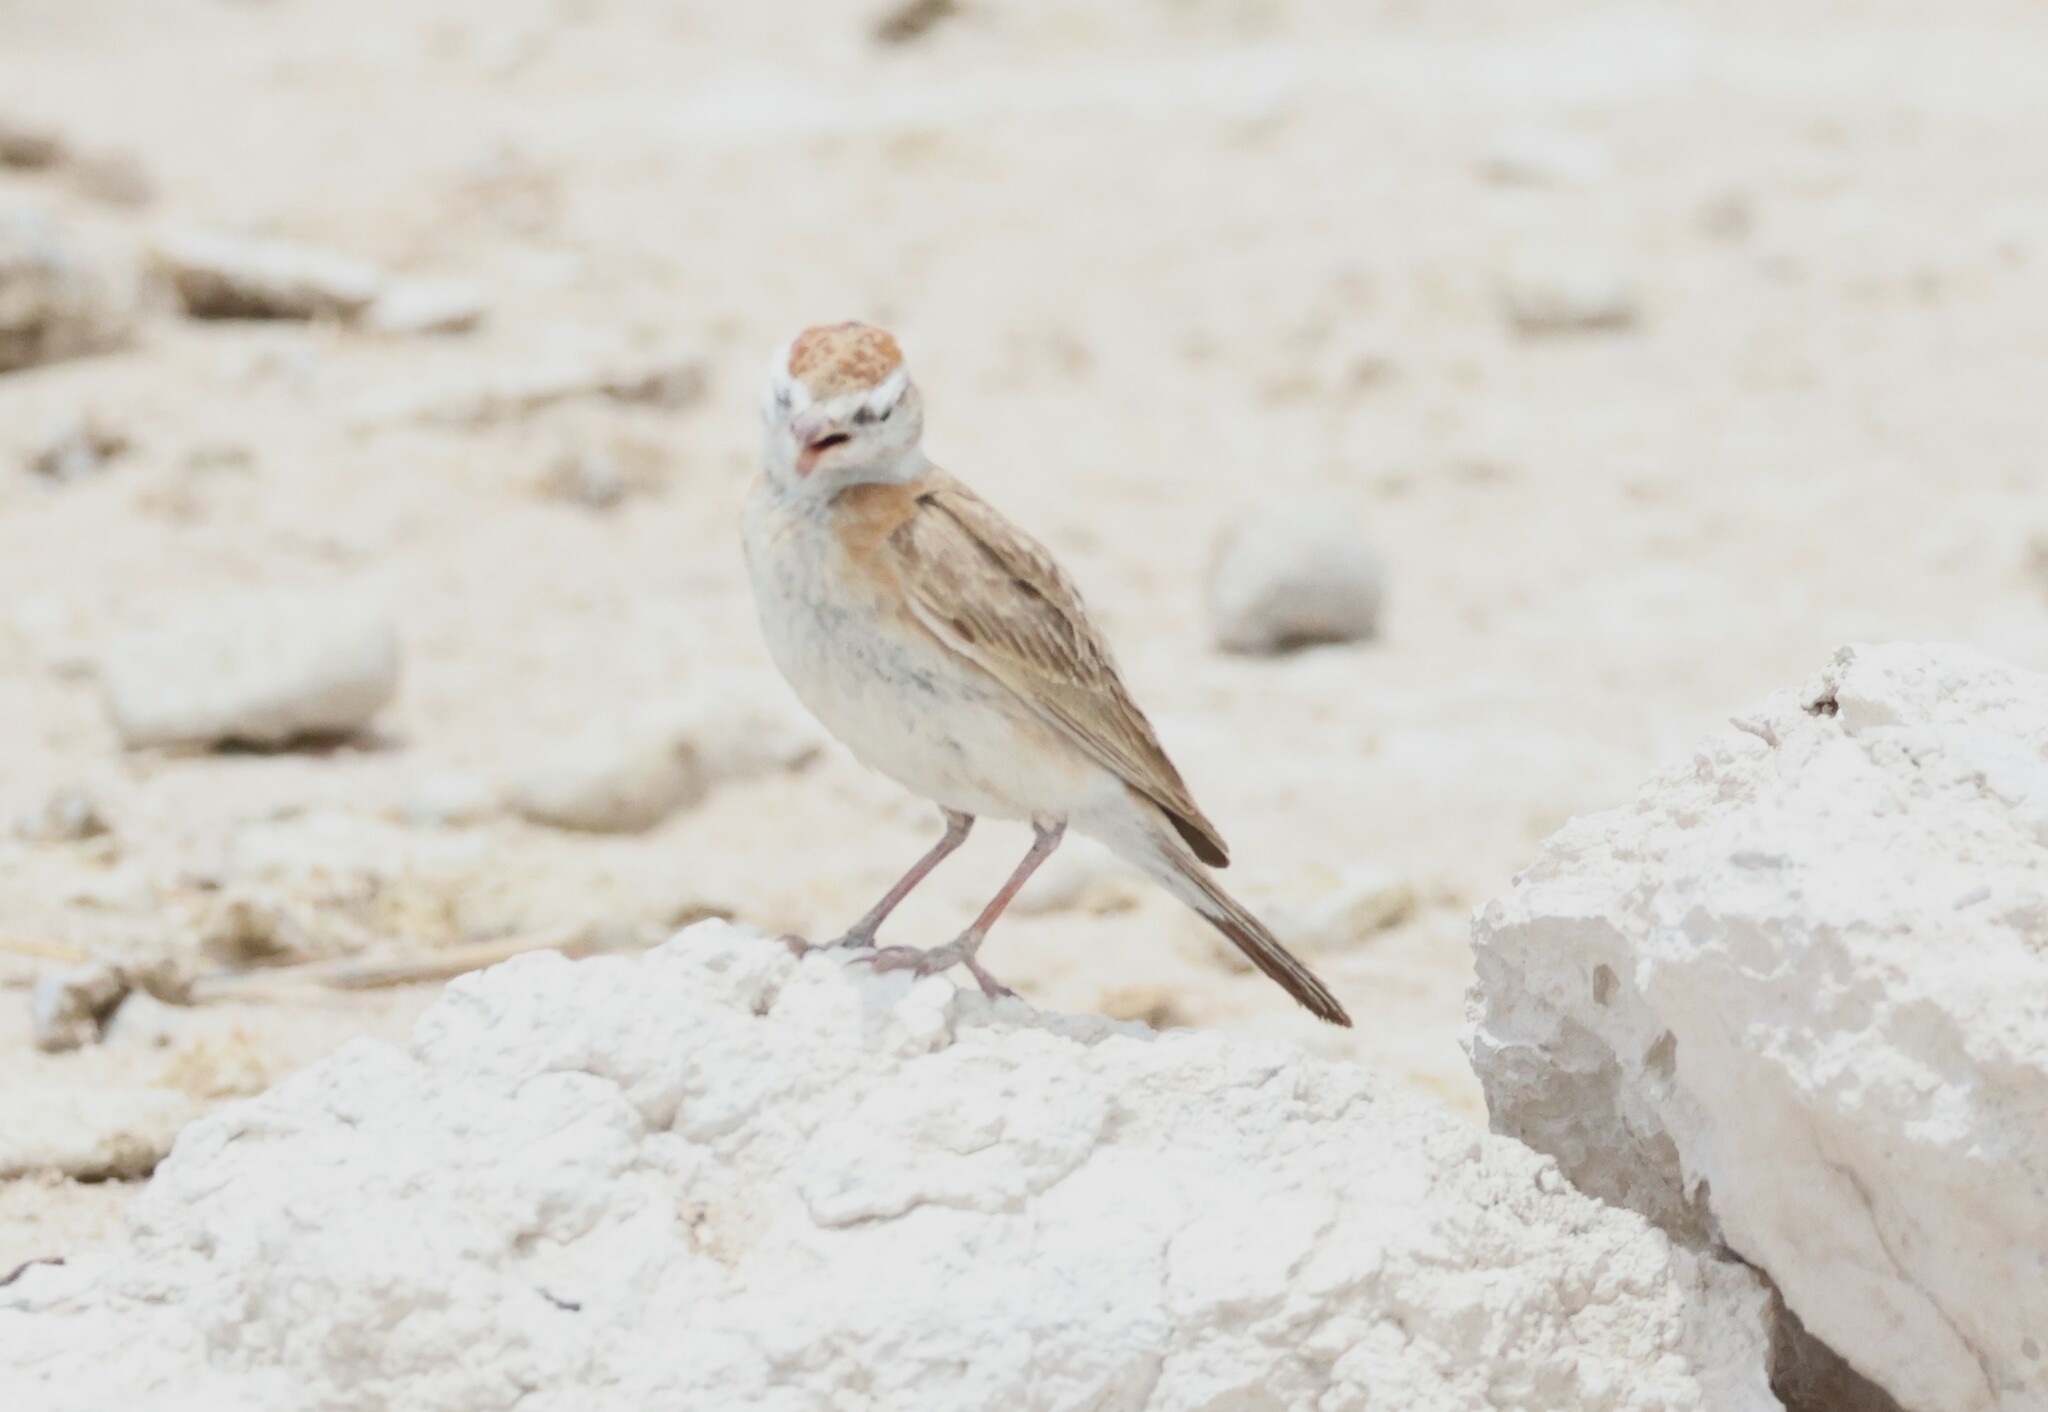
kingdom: Animalia
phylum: Chordata
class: Aves
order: Passeriformes
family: Alaudidae
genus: Calandrella
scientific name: Calandrella cinerea
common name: Red-capped lark
